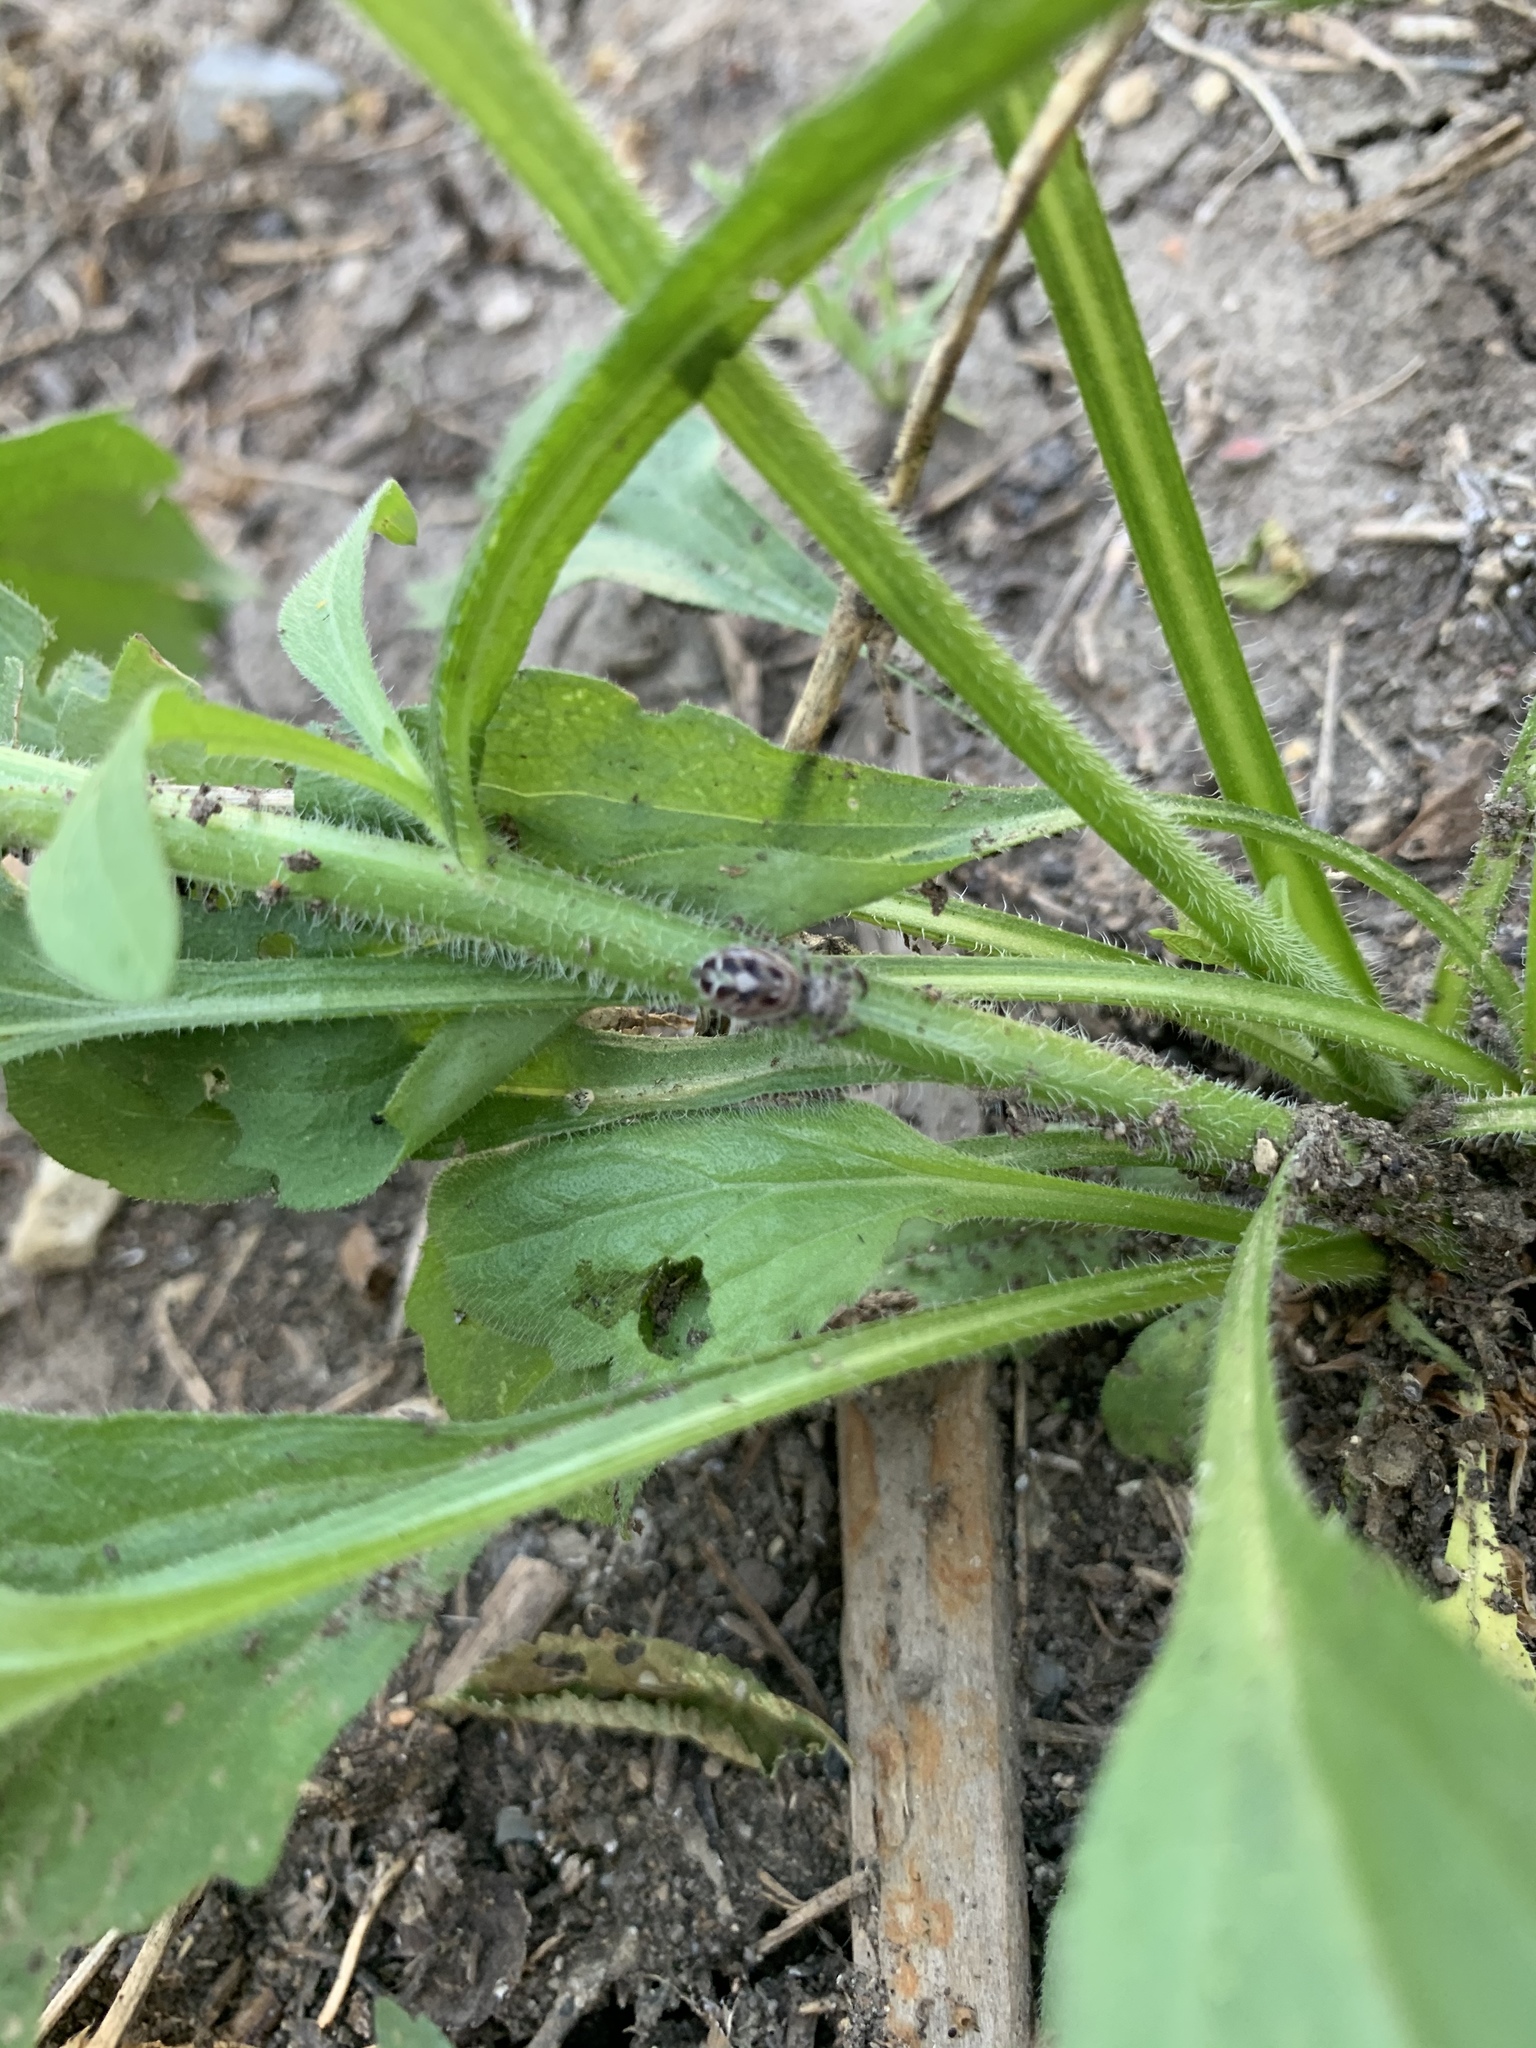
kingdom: Animalia
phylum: Arthropoda
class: Arachnida
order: Araneae
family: Salticidae
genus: Phidippus
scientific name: Phidippus putnami
